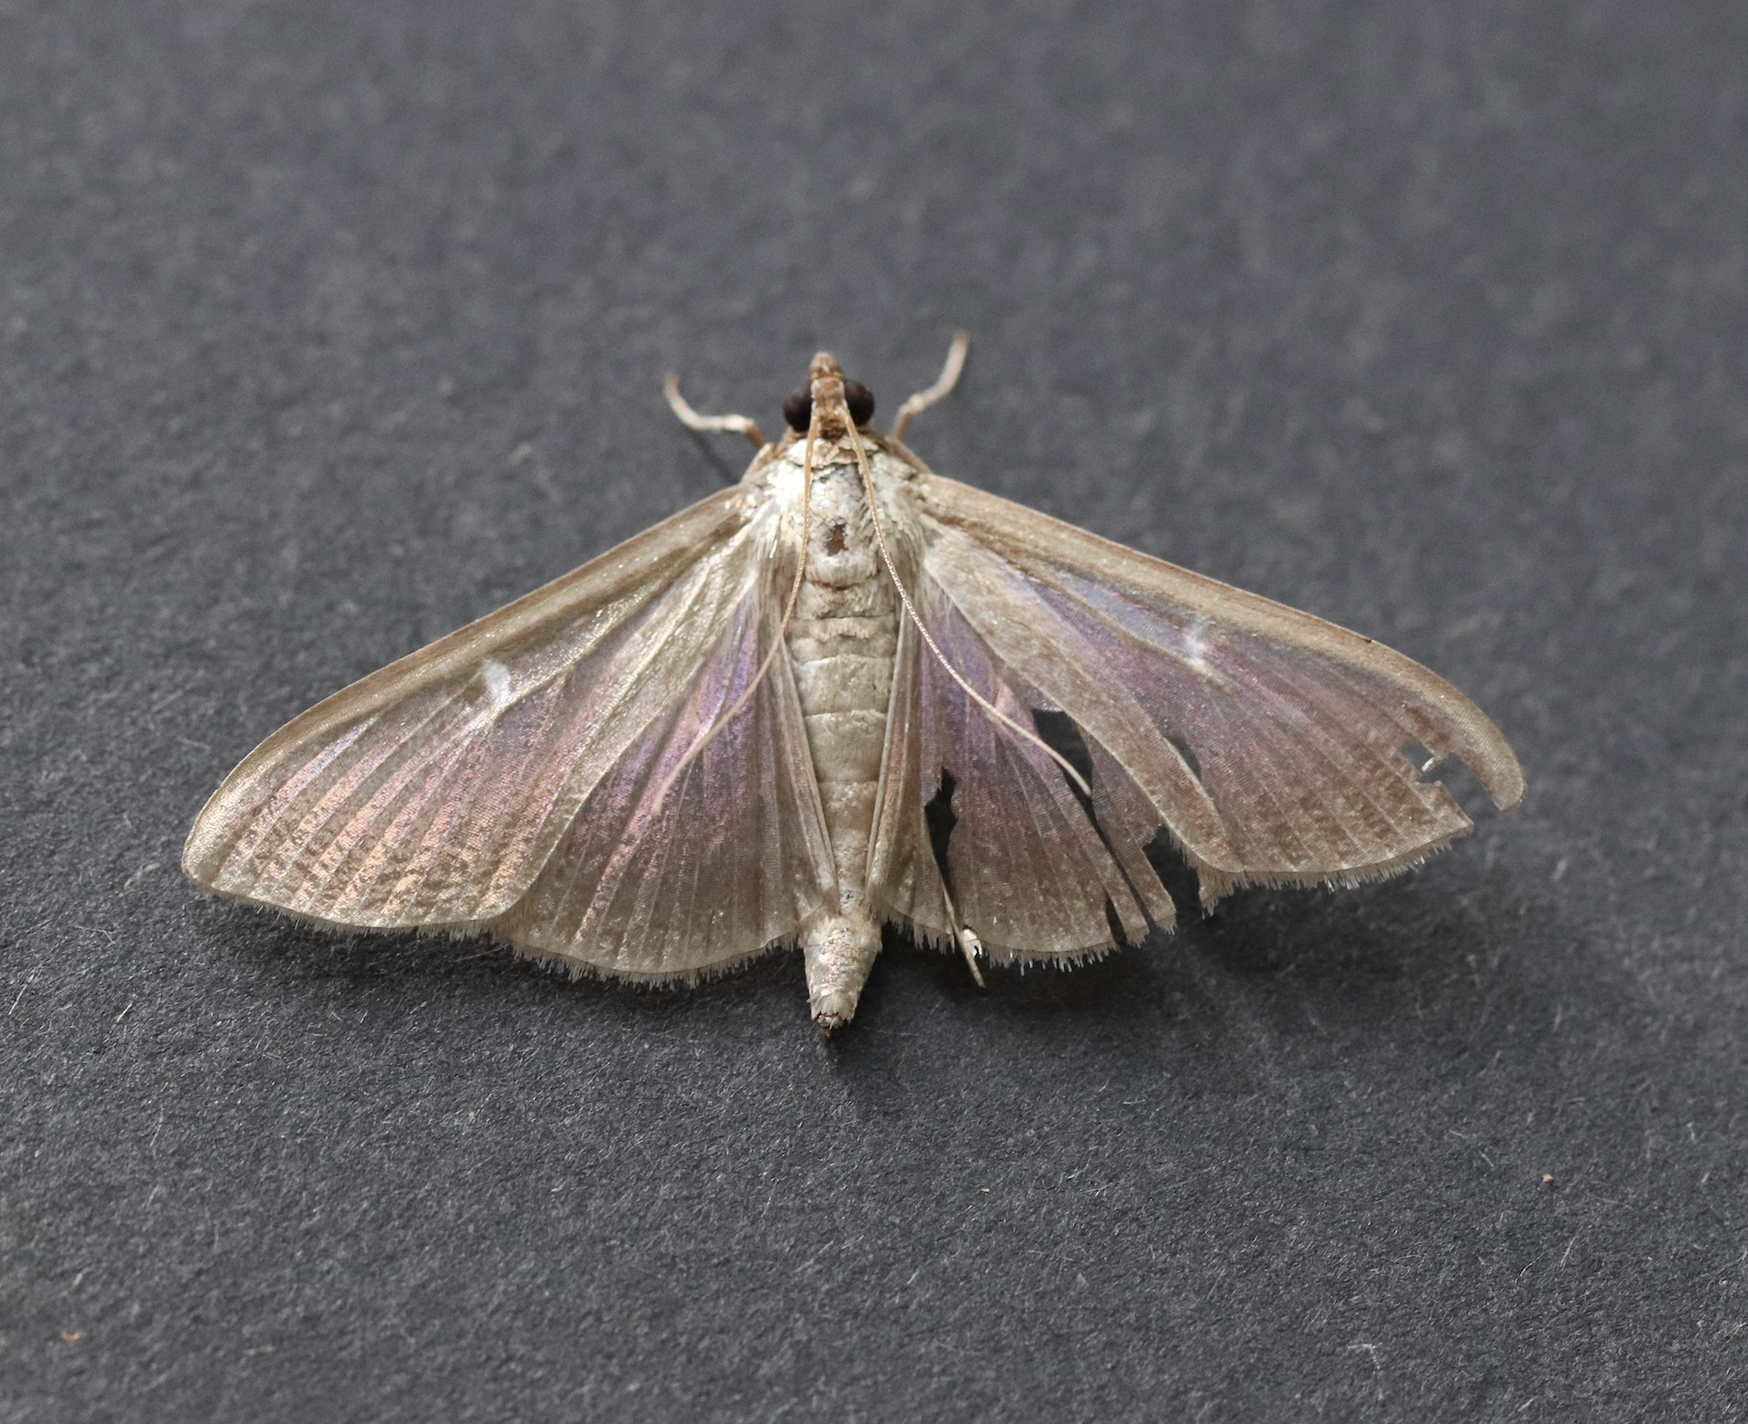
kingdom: Animalia
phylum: Arthropoda
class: Insecta
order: Lepidoptera
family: Crambidae
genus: Cydalima
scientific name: Cydalima perspectalis
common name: Box tree moth
